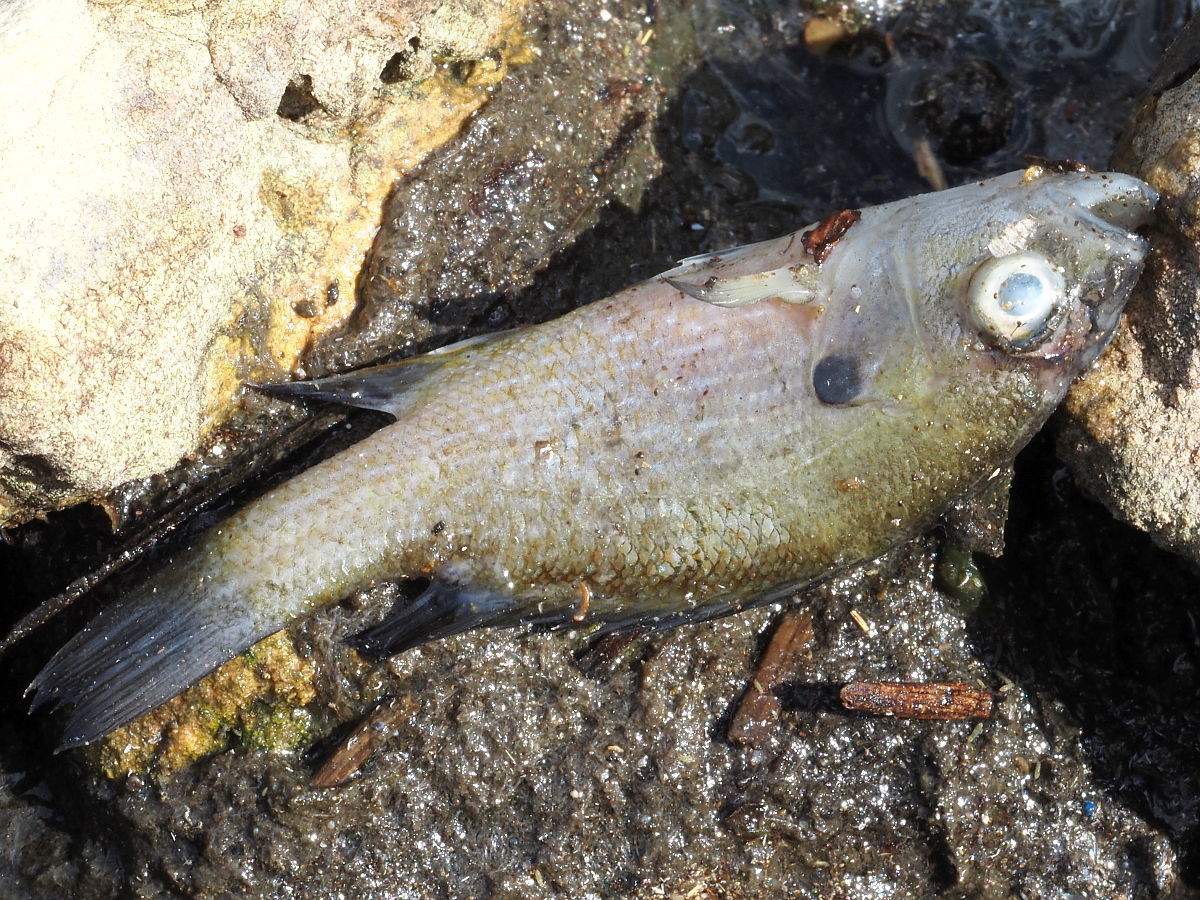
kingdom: Animalia
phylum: Chordata
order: Perciformes
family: Centrarchidae
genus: Lepomis
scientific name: Lepomis cyanellus
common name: Green sunfish
